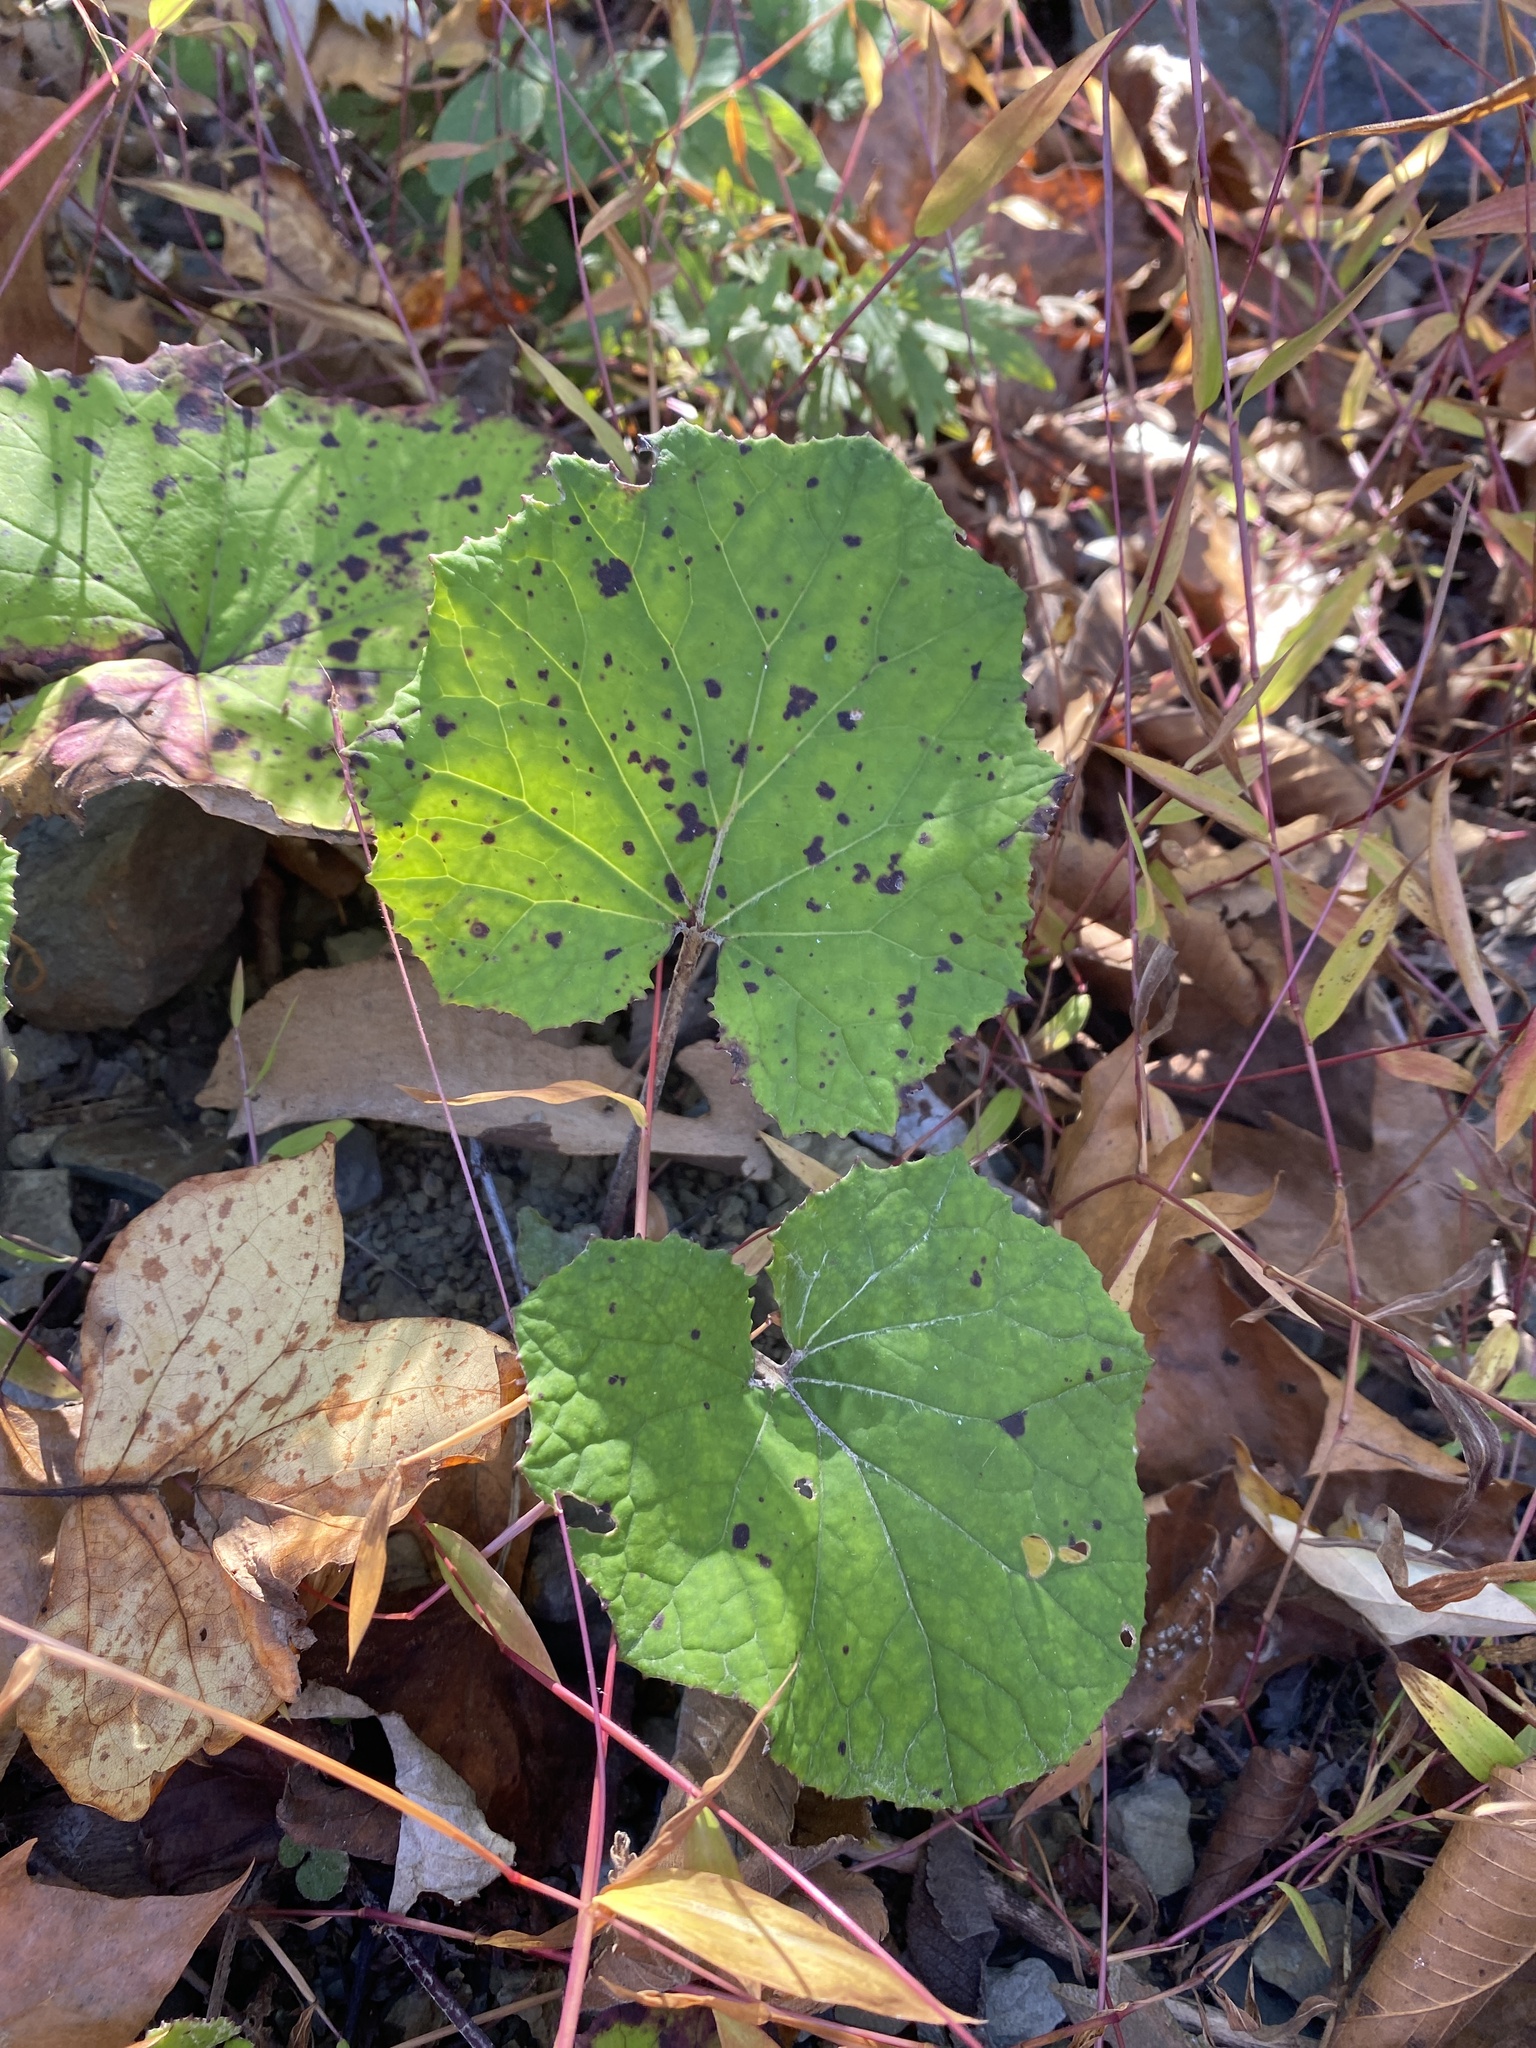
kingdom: Plantae
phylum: Tracheophyta
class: Magnoliopsida
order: Asterales
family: Asteraceae
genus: Tussilago
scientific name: Tussilago farfara
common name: Coltsfoot
